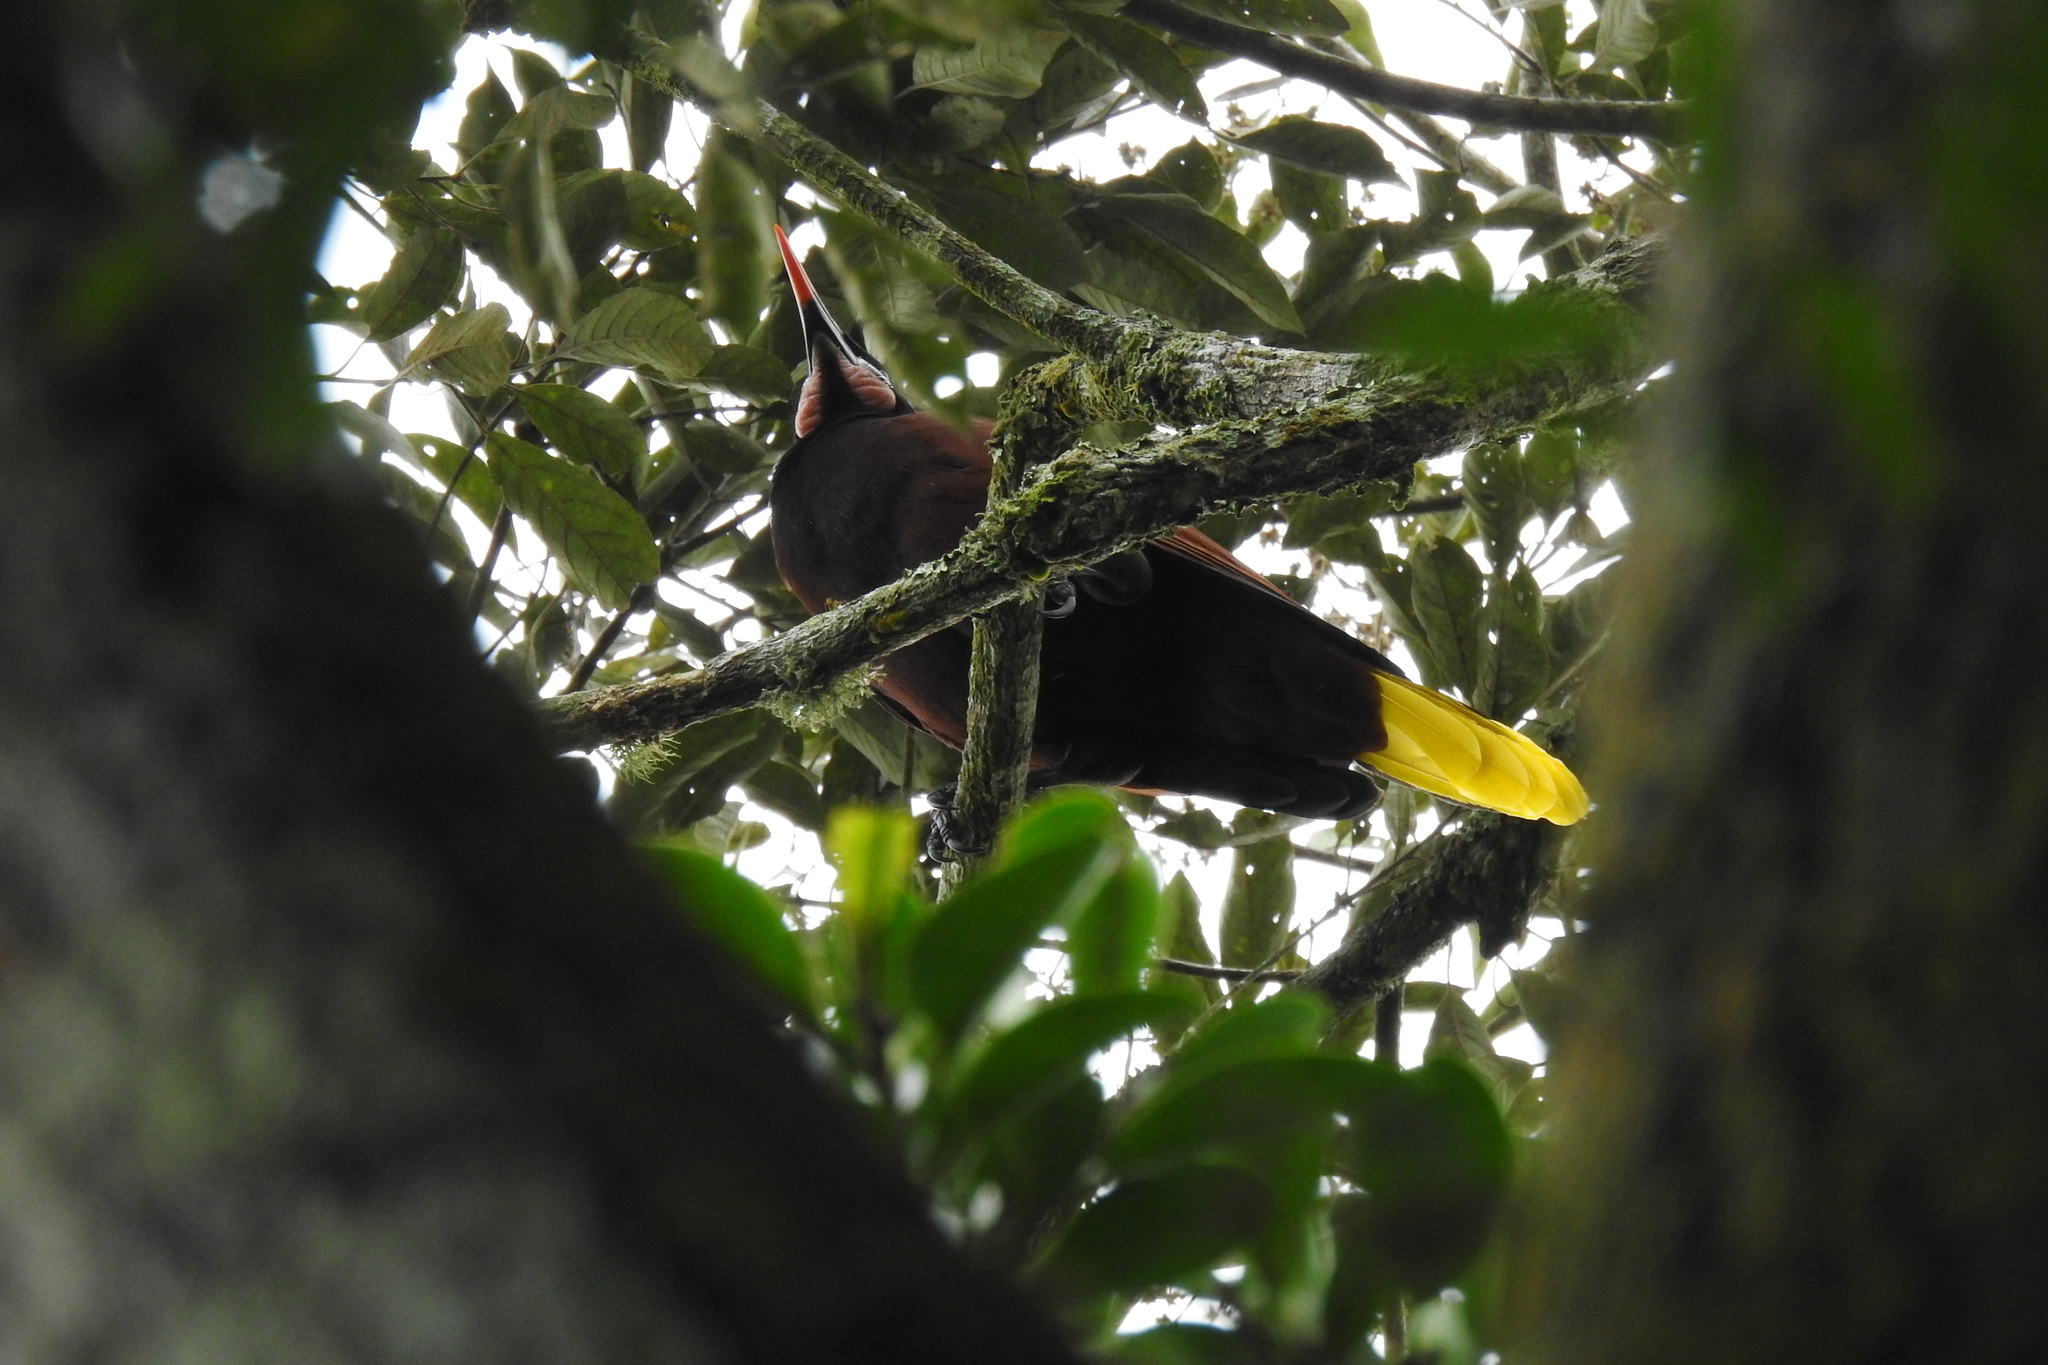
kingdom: Animalia
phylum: Chordata
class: Aves
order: Passeriformes
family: Icteridae
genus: Psarocolius
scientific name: Psarocolius montezuma
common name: Montezuma oropendola
